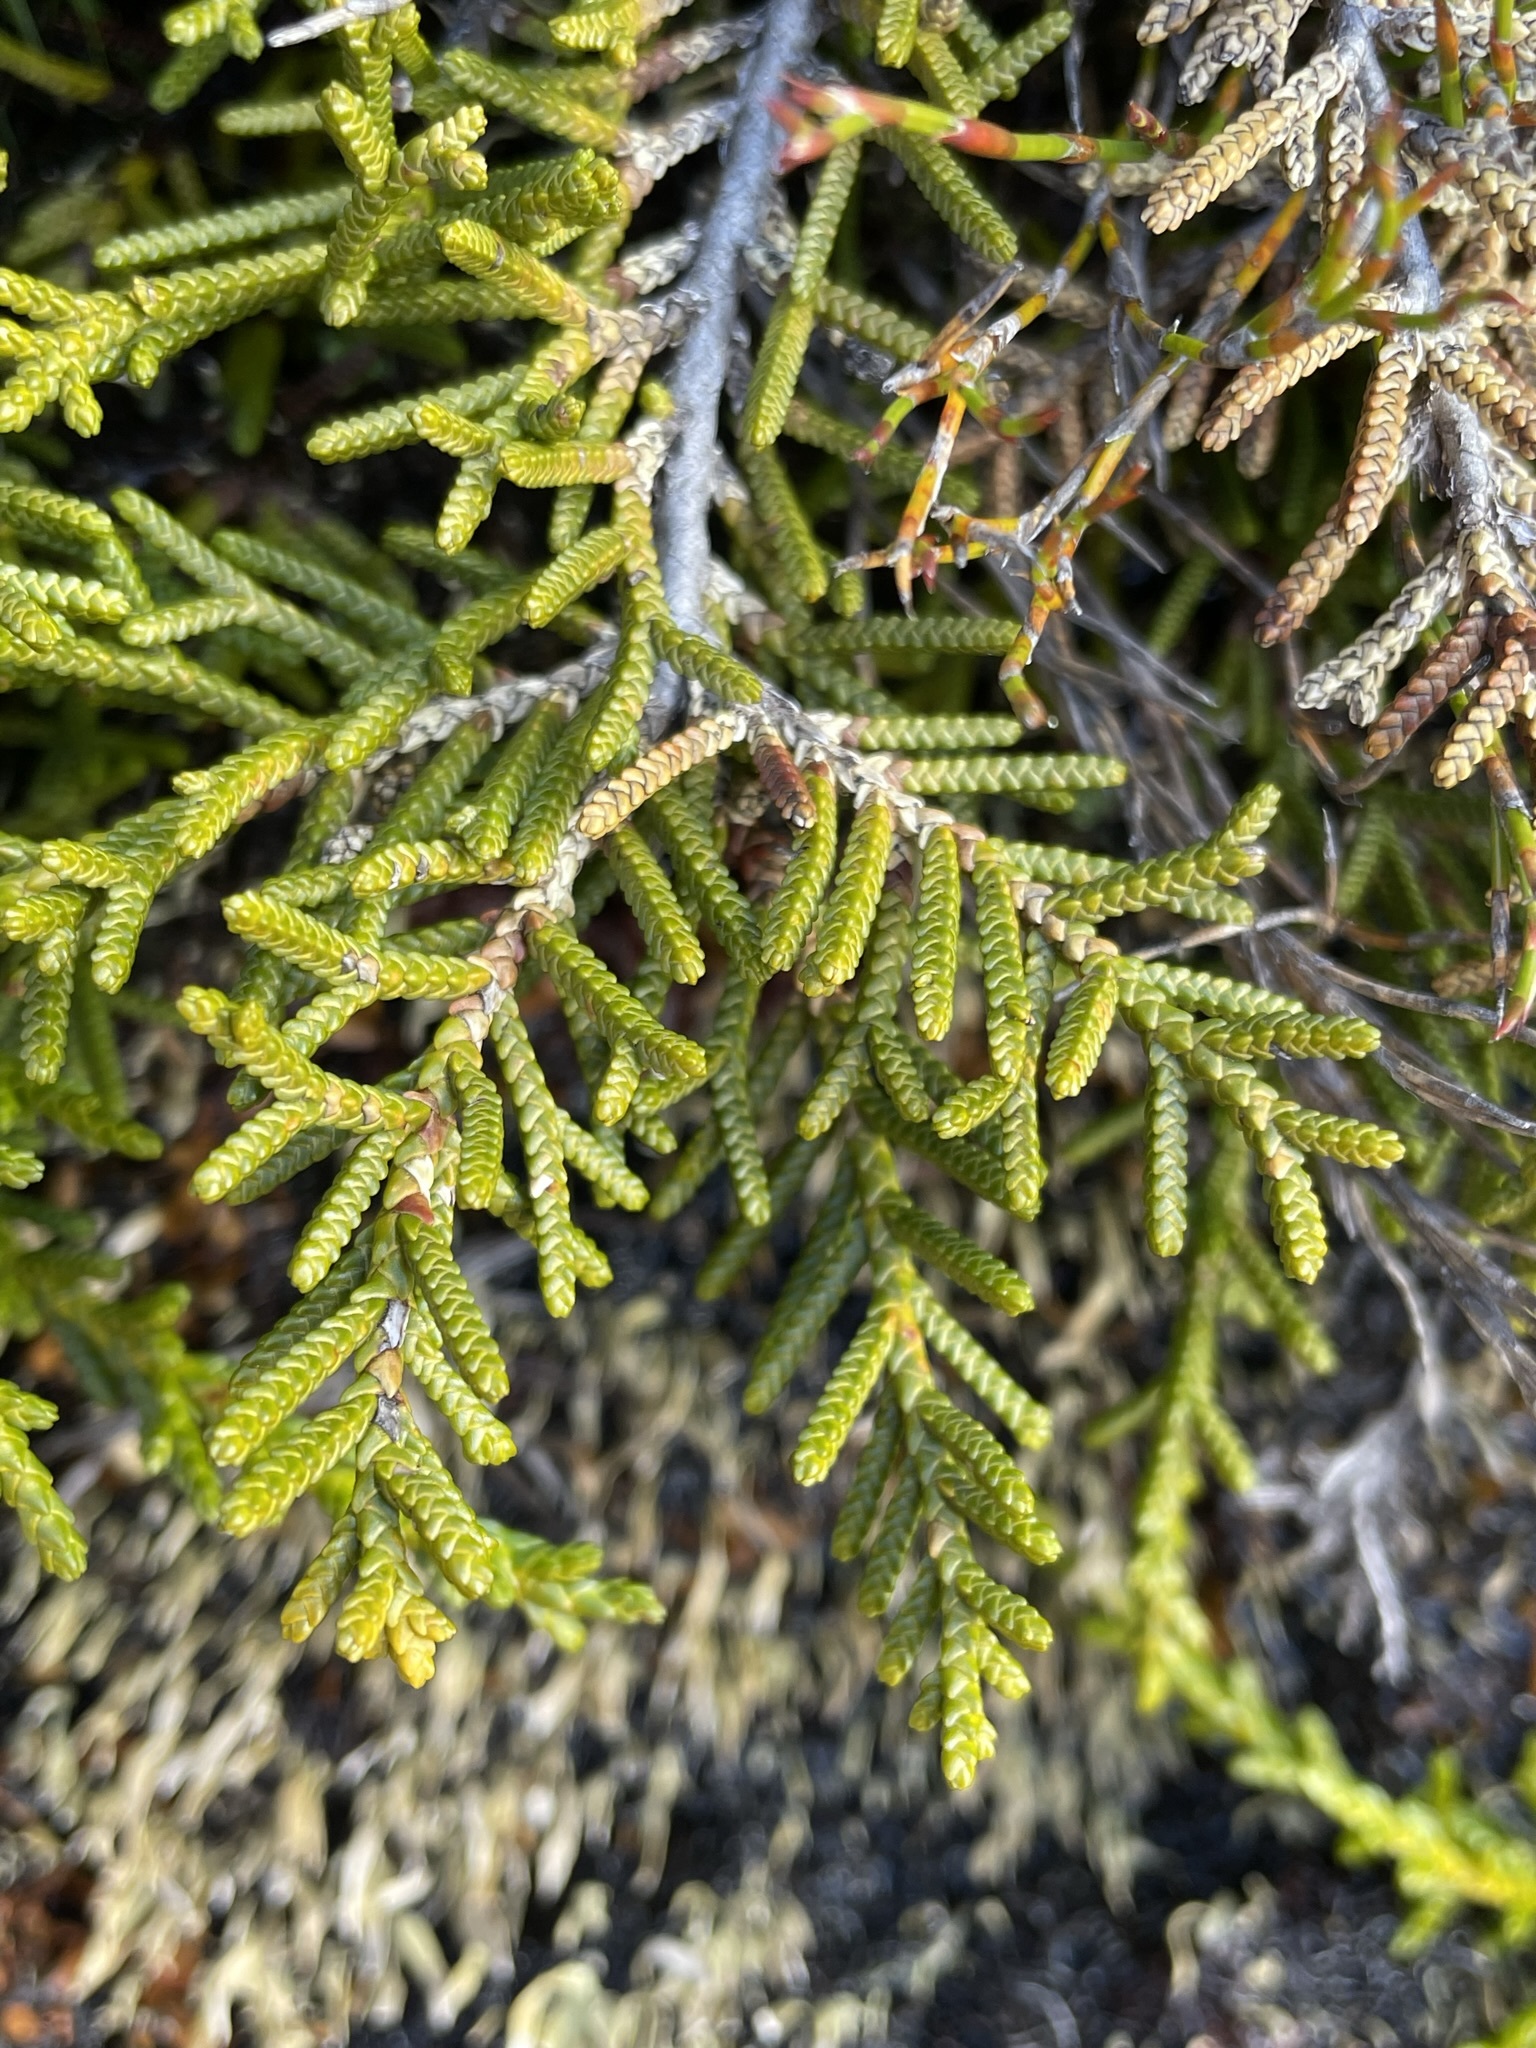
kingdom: Plantae
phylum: Tracheophyta
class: Pinopsida
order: Pinales
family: Podocarpaceae
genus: Microcachrys
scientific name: Microcachrys tetragona
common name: Creeping pine
